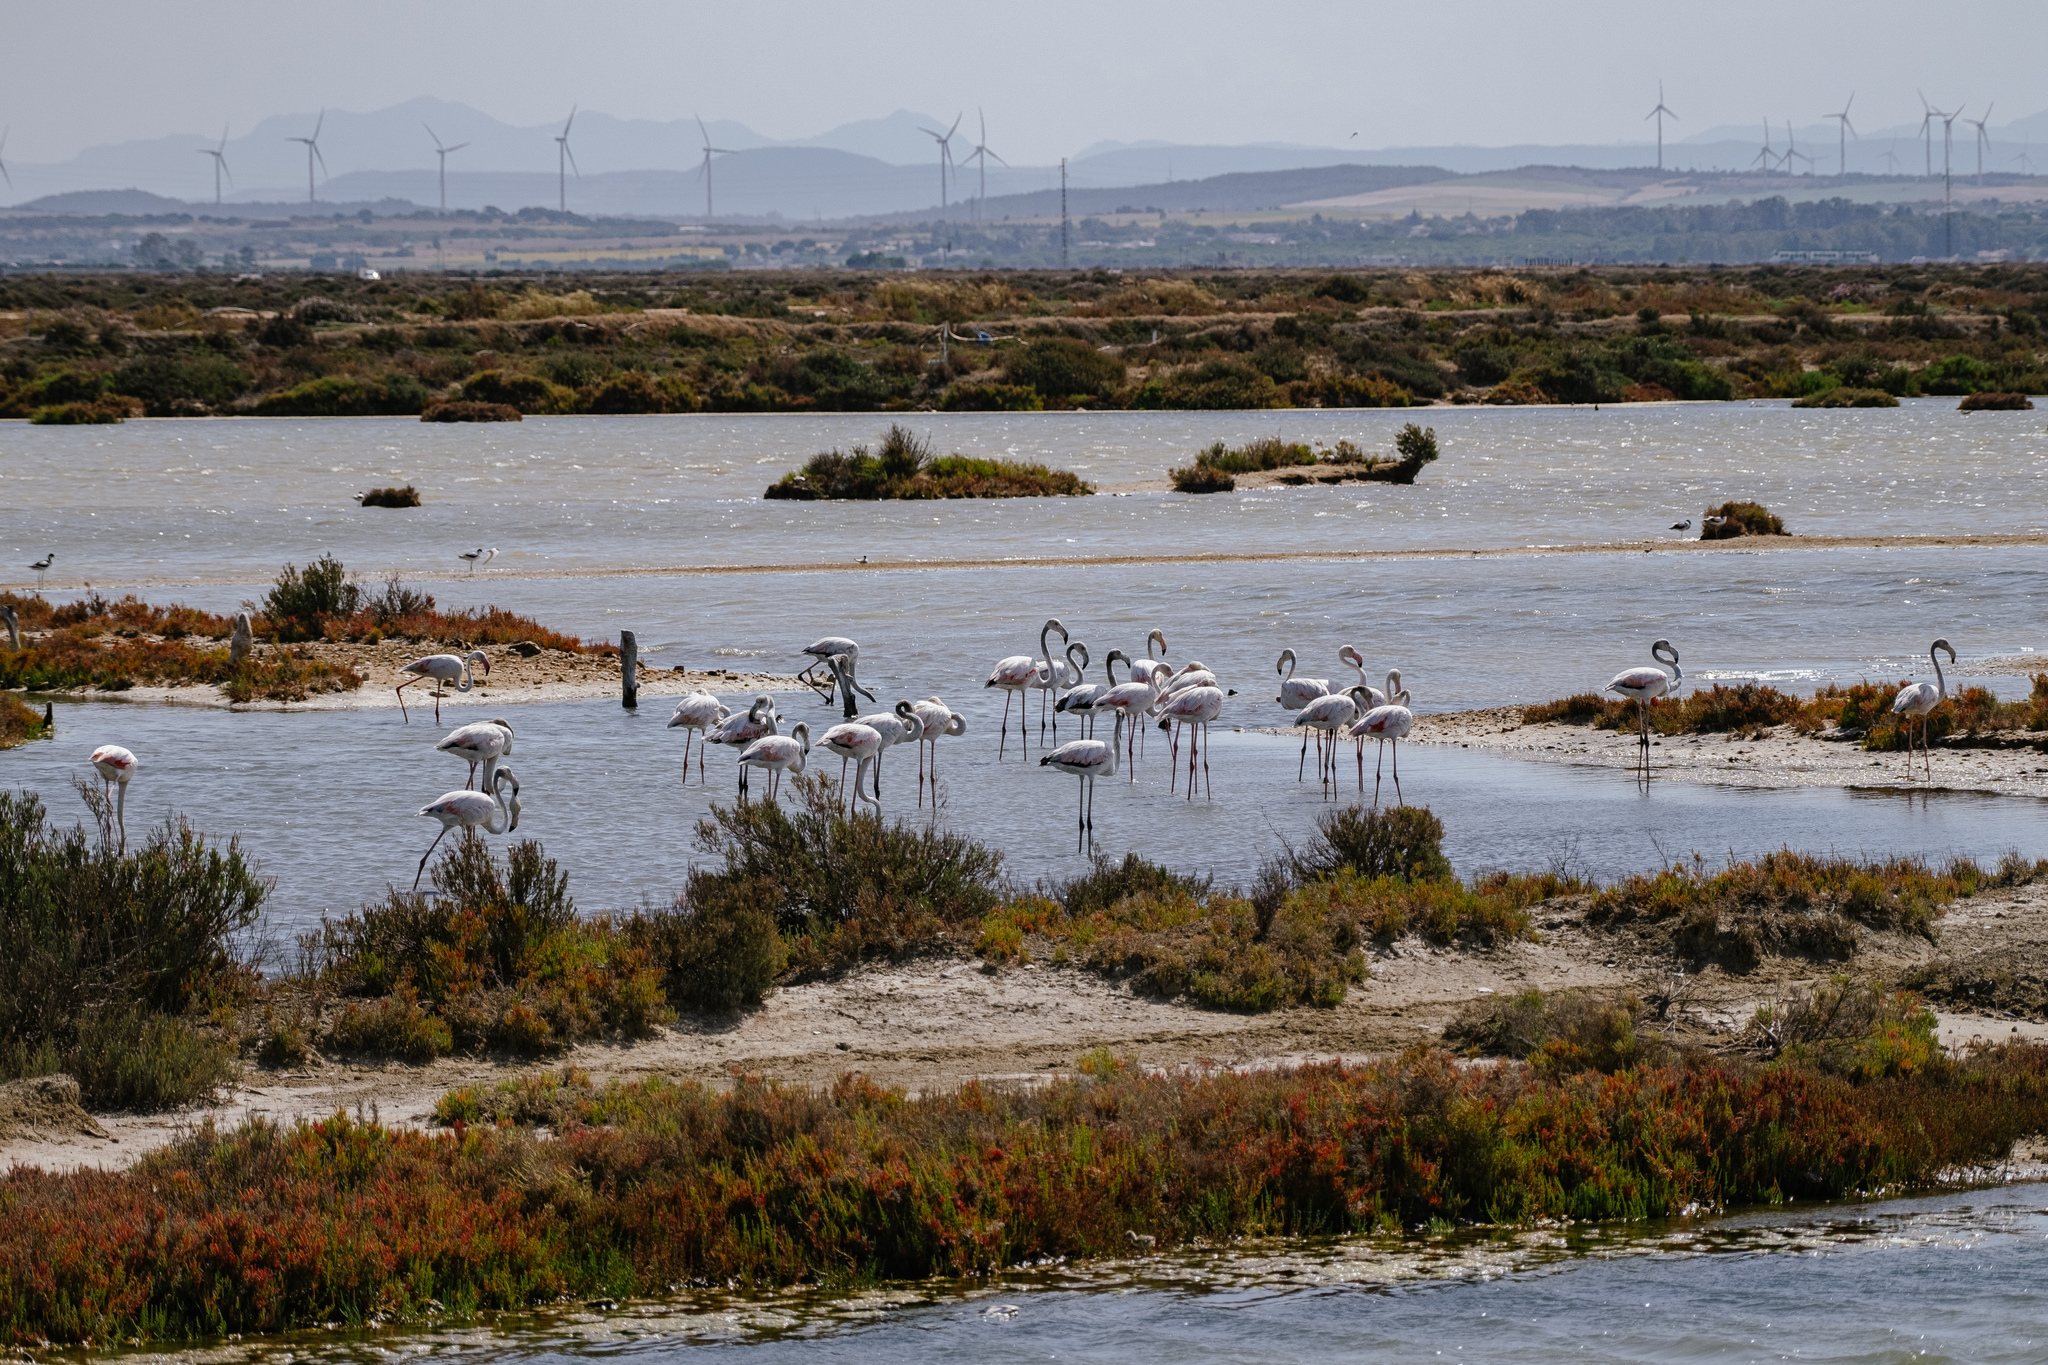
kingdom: Animalia
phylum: Chordata
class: Aves
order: Phoenicopteriformes
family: Phoenicopteridae
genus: Phoenicopterus
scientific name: Phoenicopterus roseus
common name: Greater flamingo
